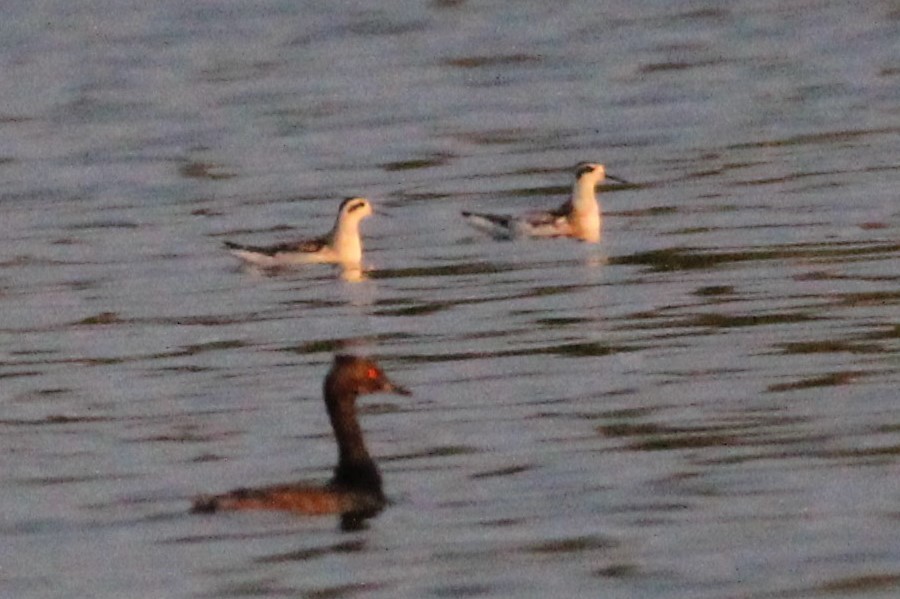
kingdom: Animalia
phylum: Chordata
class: Aves
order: Charadriiformes
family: Scolopacidae
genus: Phalaropus
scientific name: Phalaropus lobatus
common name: Red-necked phalarope
